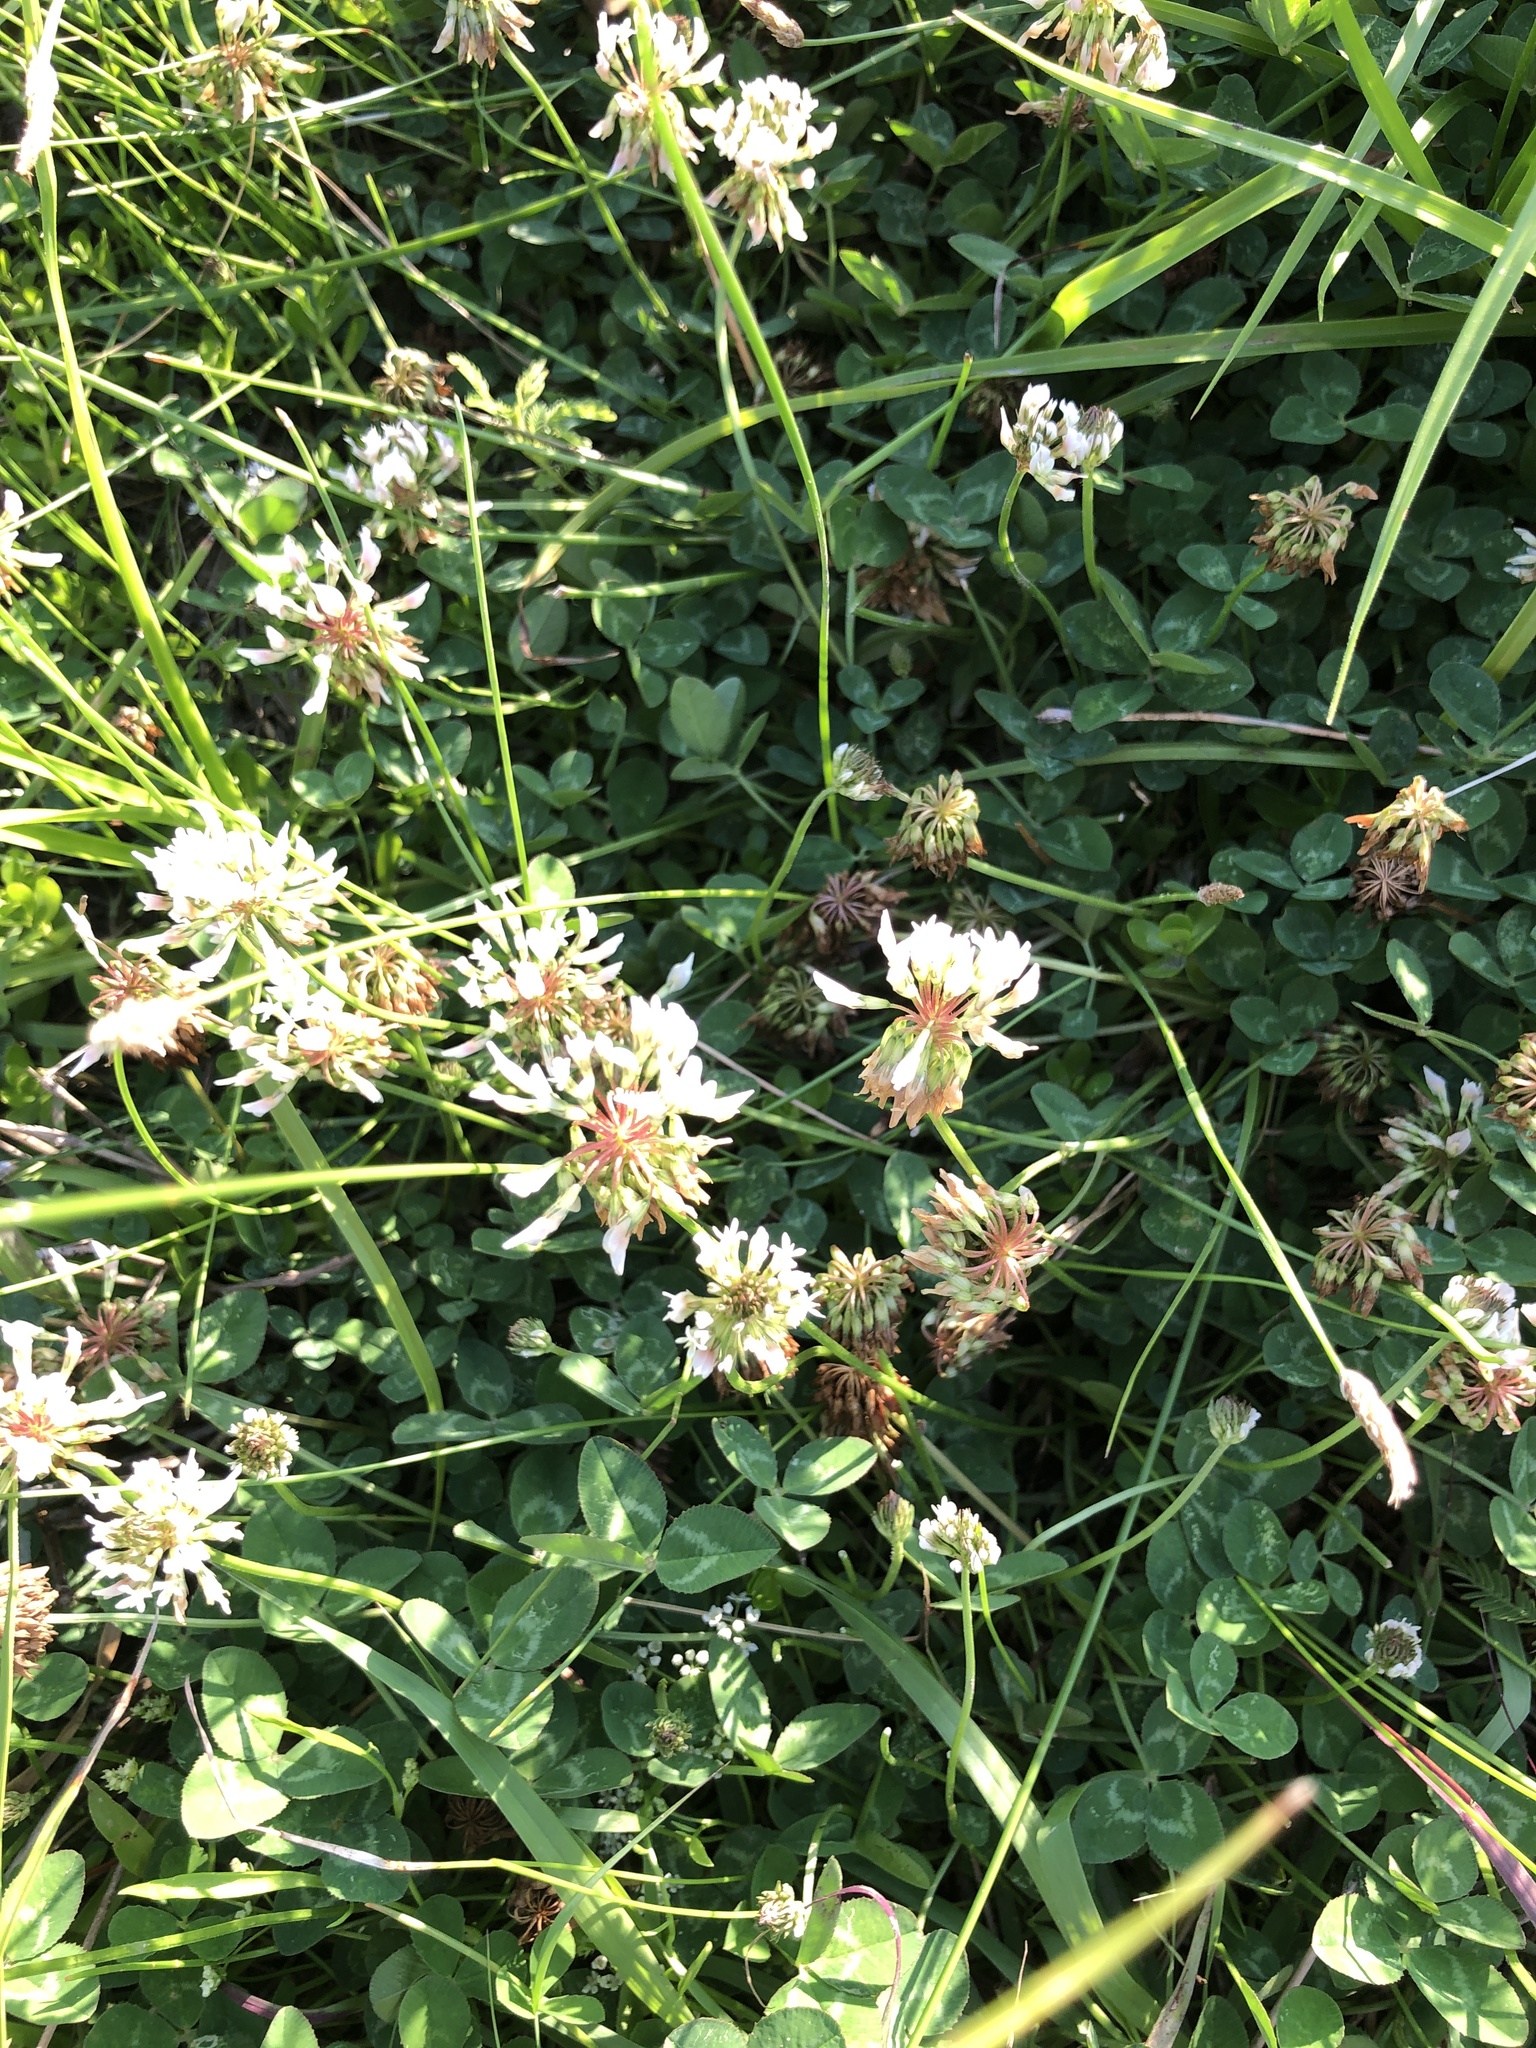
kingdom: Plantae
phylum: Tracheophyta
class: Magnoliopsida
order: Fabales
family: Fabaceae
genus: Trifolium
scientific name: Trifolium repens
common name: White clover
